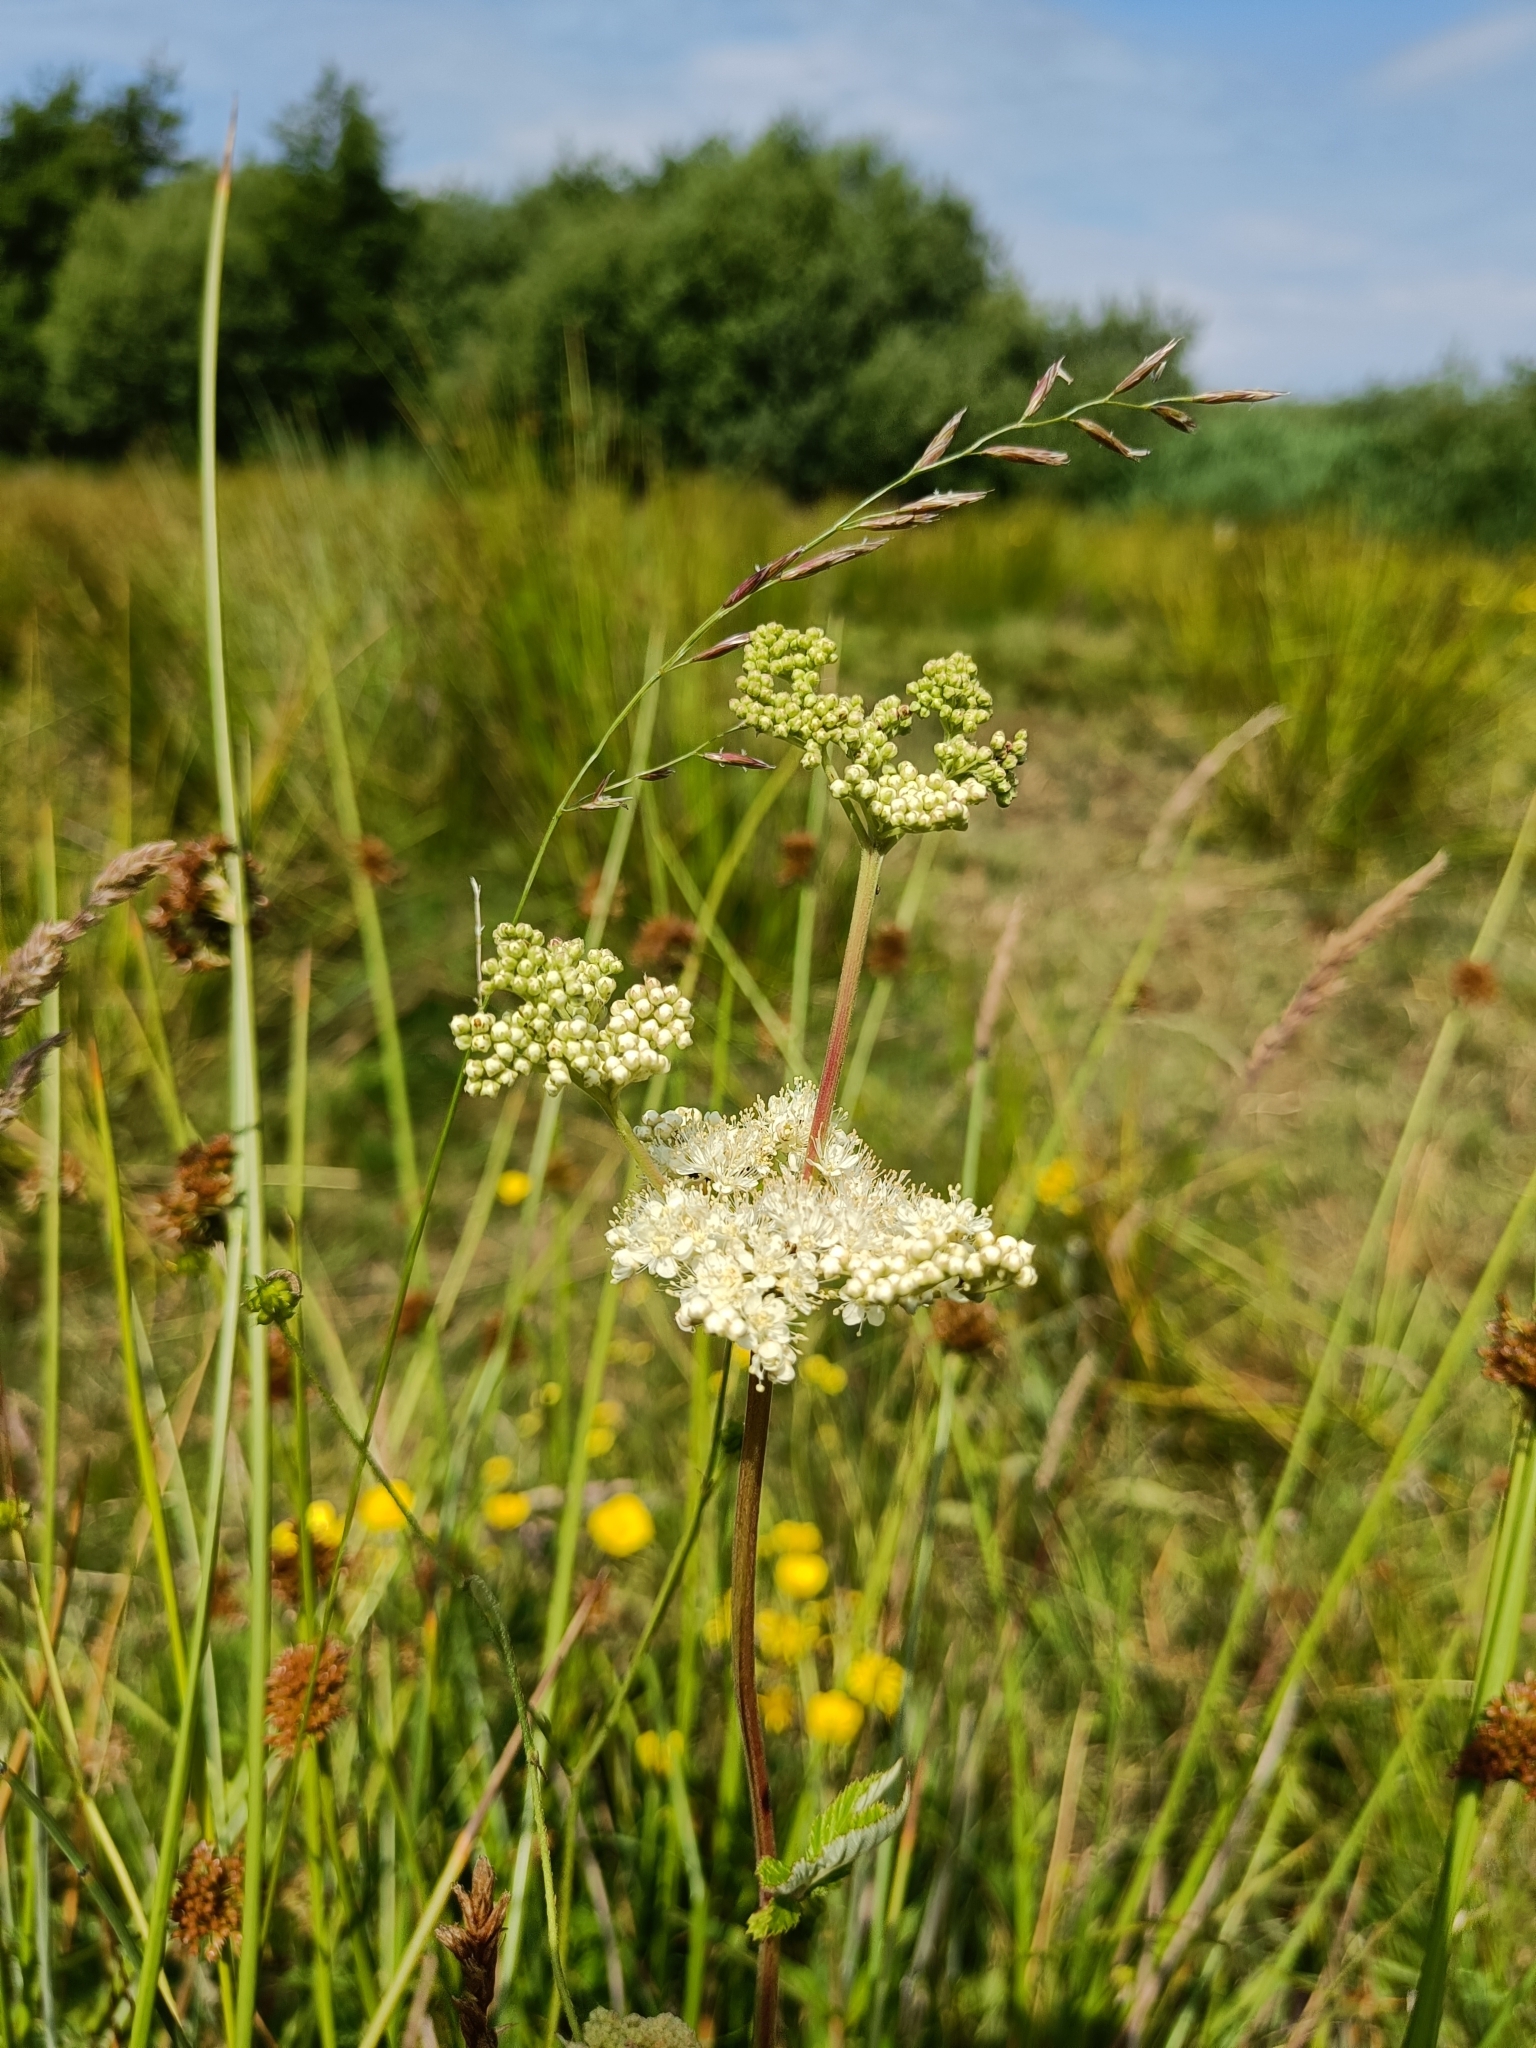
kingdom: Plantae
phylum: Tracheophyta
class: Magnoliopsida
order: Rosales
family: Rosaceae
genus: Filipendula
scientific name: Filipendula ulmaria
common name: Meadowsweet
